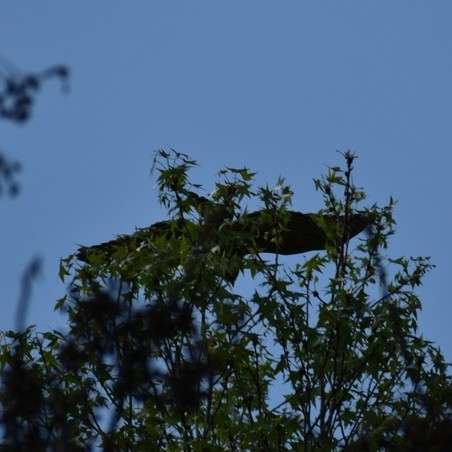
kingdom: Animalia
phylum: Chordata
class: Aves
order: Accipitriformes
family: Accipitridae
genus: Buteo
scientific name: Buteo lineatus
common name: Red-shouldered hawk
